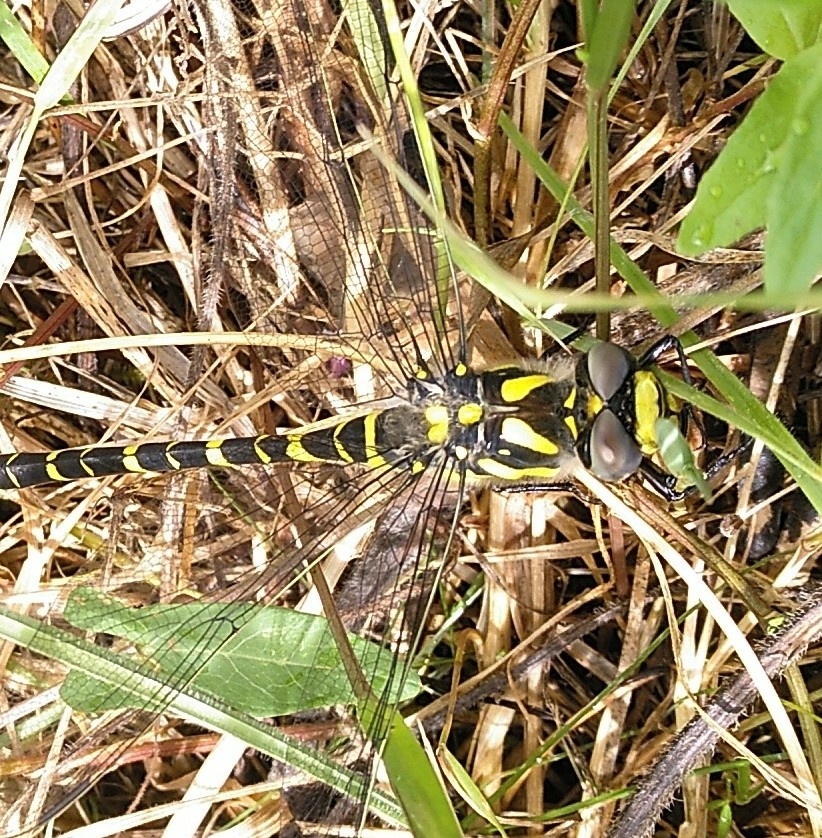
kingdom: Animalia
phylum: Arthropoda
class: Insecta
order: Odonata
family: Cordulegastridae
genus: Cordulegaster
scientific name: Cordulegaster boltonii
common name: Golden-ringed dragonfly
